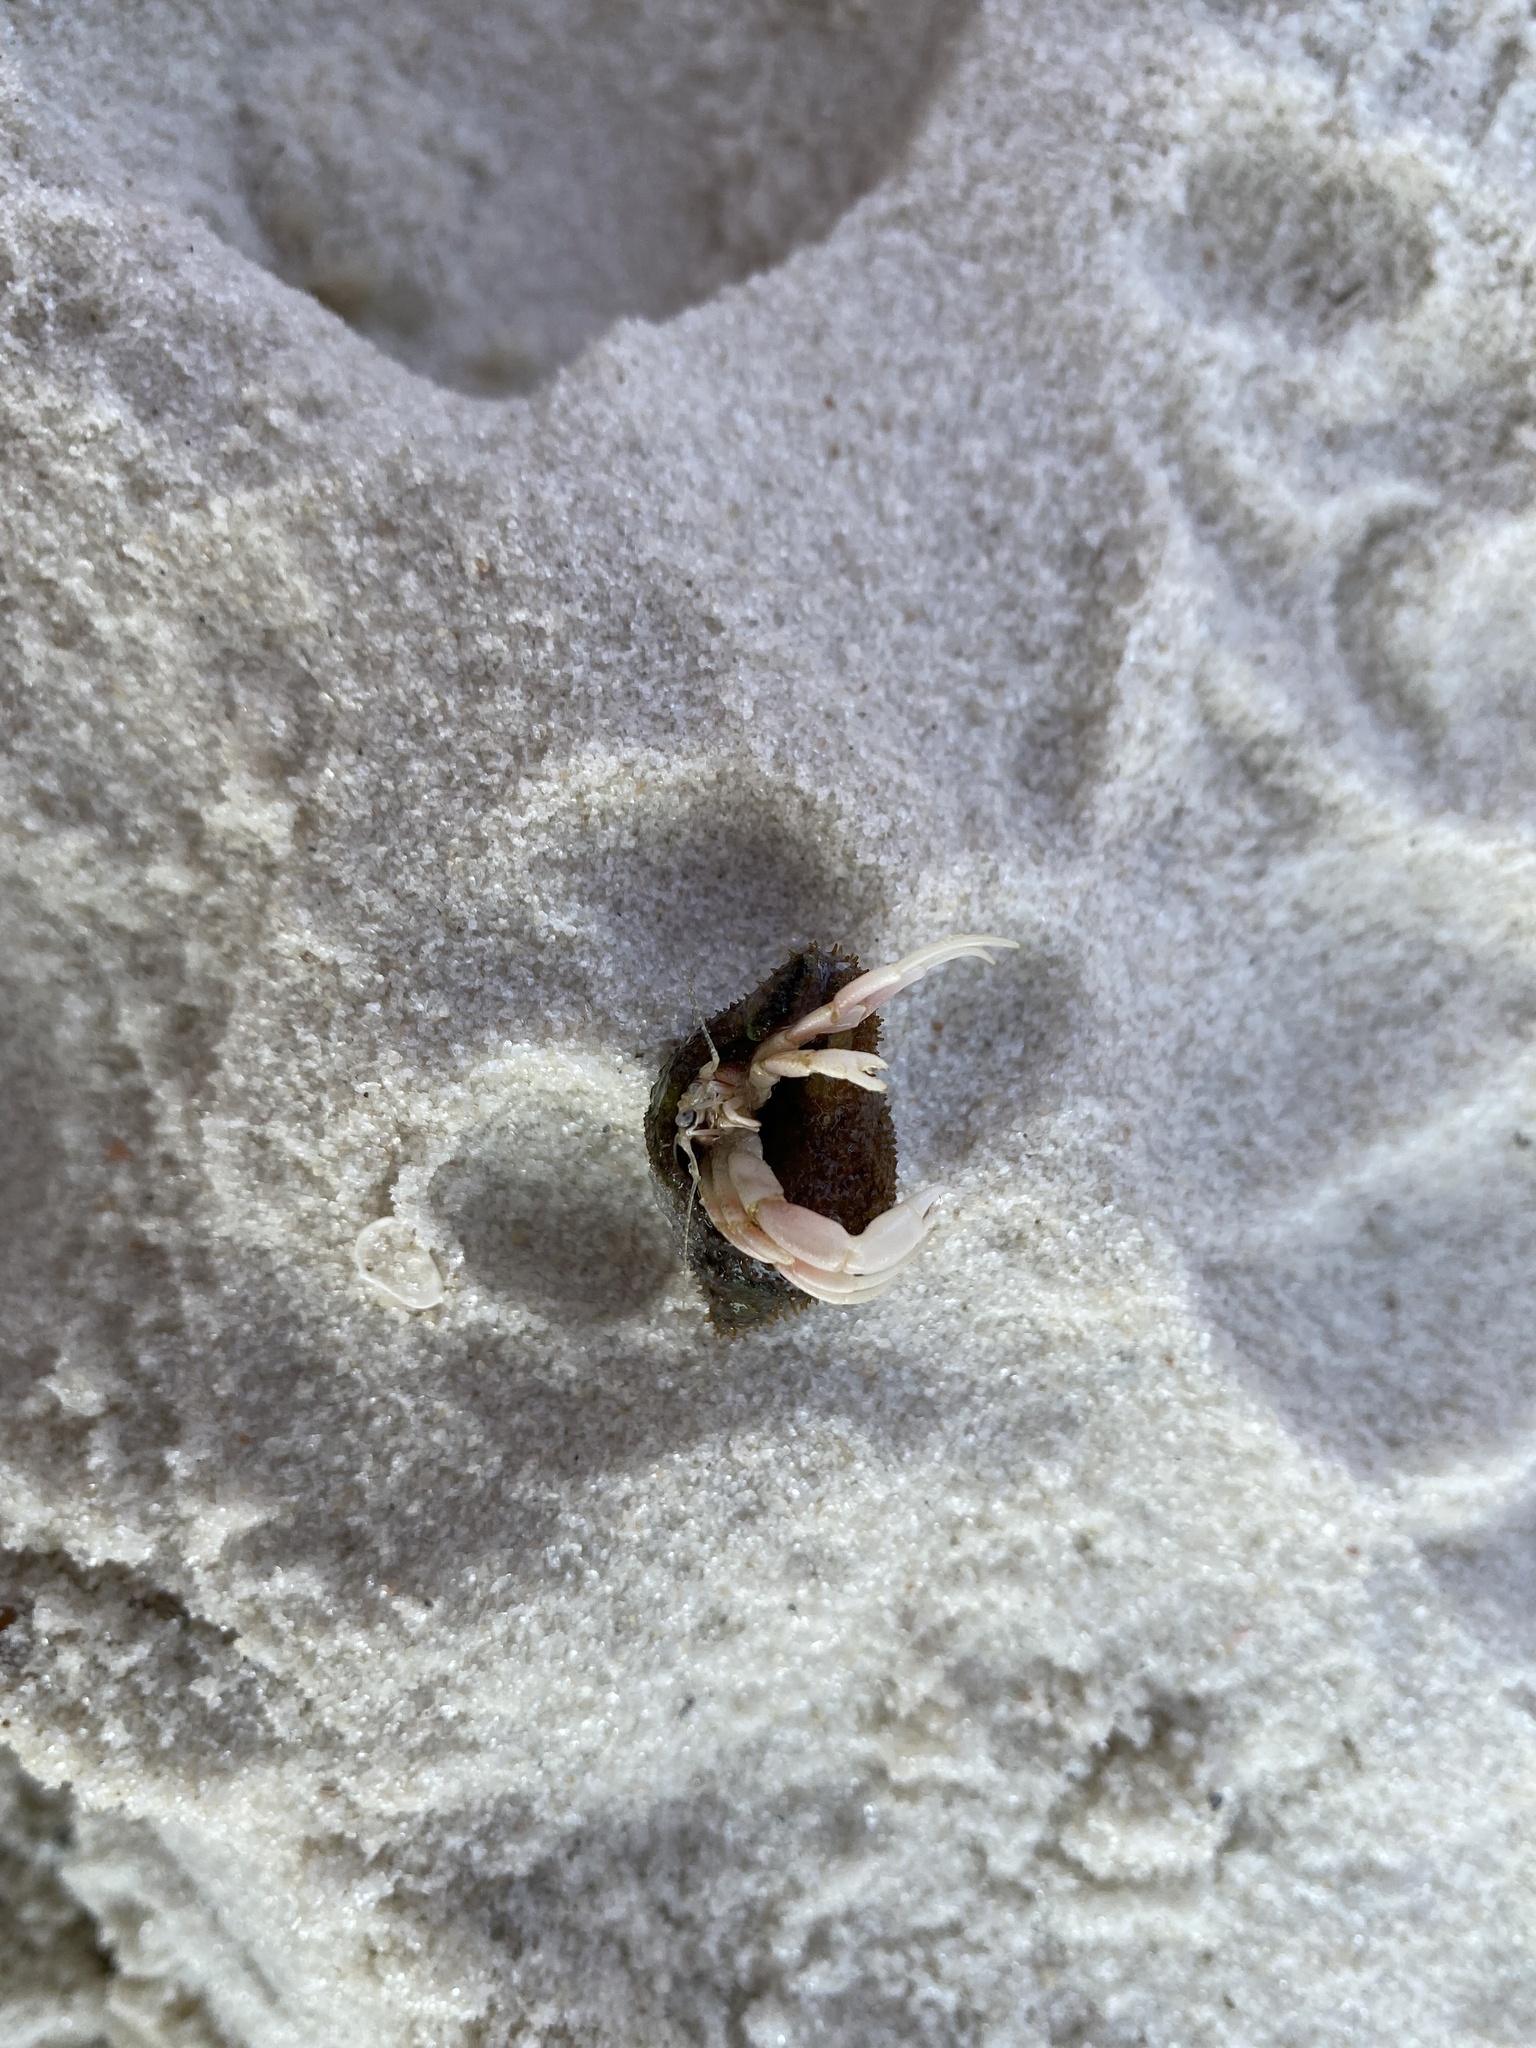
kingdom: Animalia
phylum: Arthropoda
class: Malacostraca
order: Decapoda
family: Paguridae
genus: Pagurus
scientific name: Pagurus longicarpus
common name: Long-armed hermit crab
